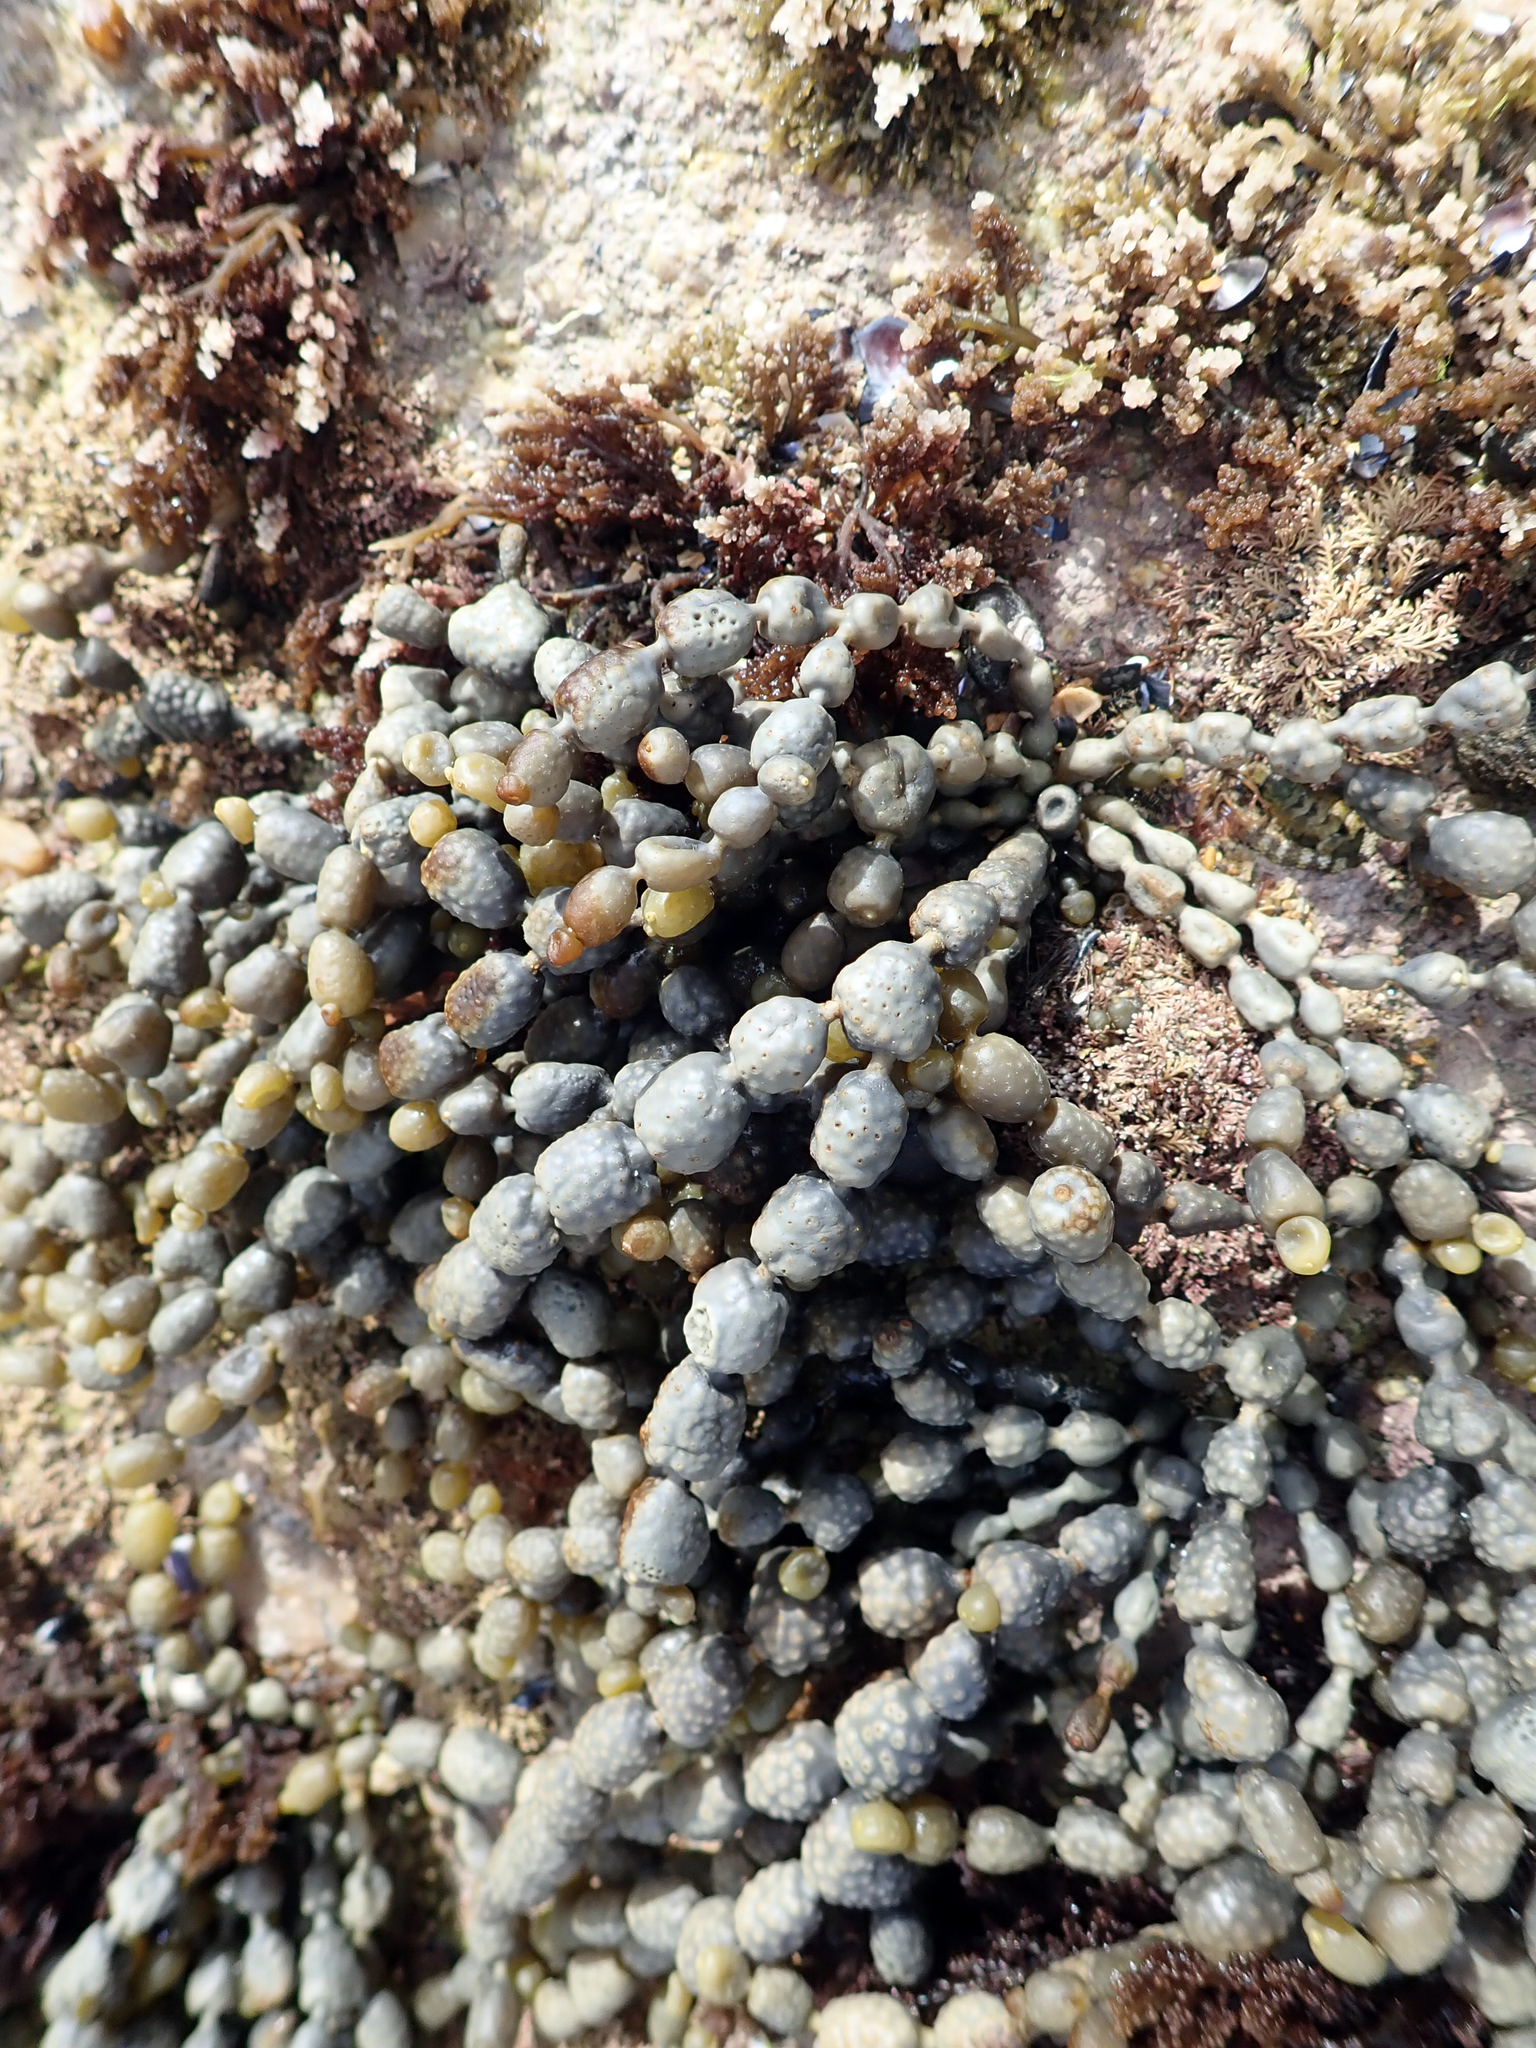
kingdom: Chromista
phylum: Ochrophyta
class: Phaeophyceae
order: Fucales
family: Hormosiraceae
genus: Hormosira
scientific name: Hormosira banksii
